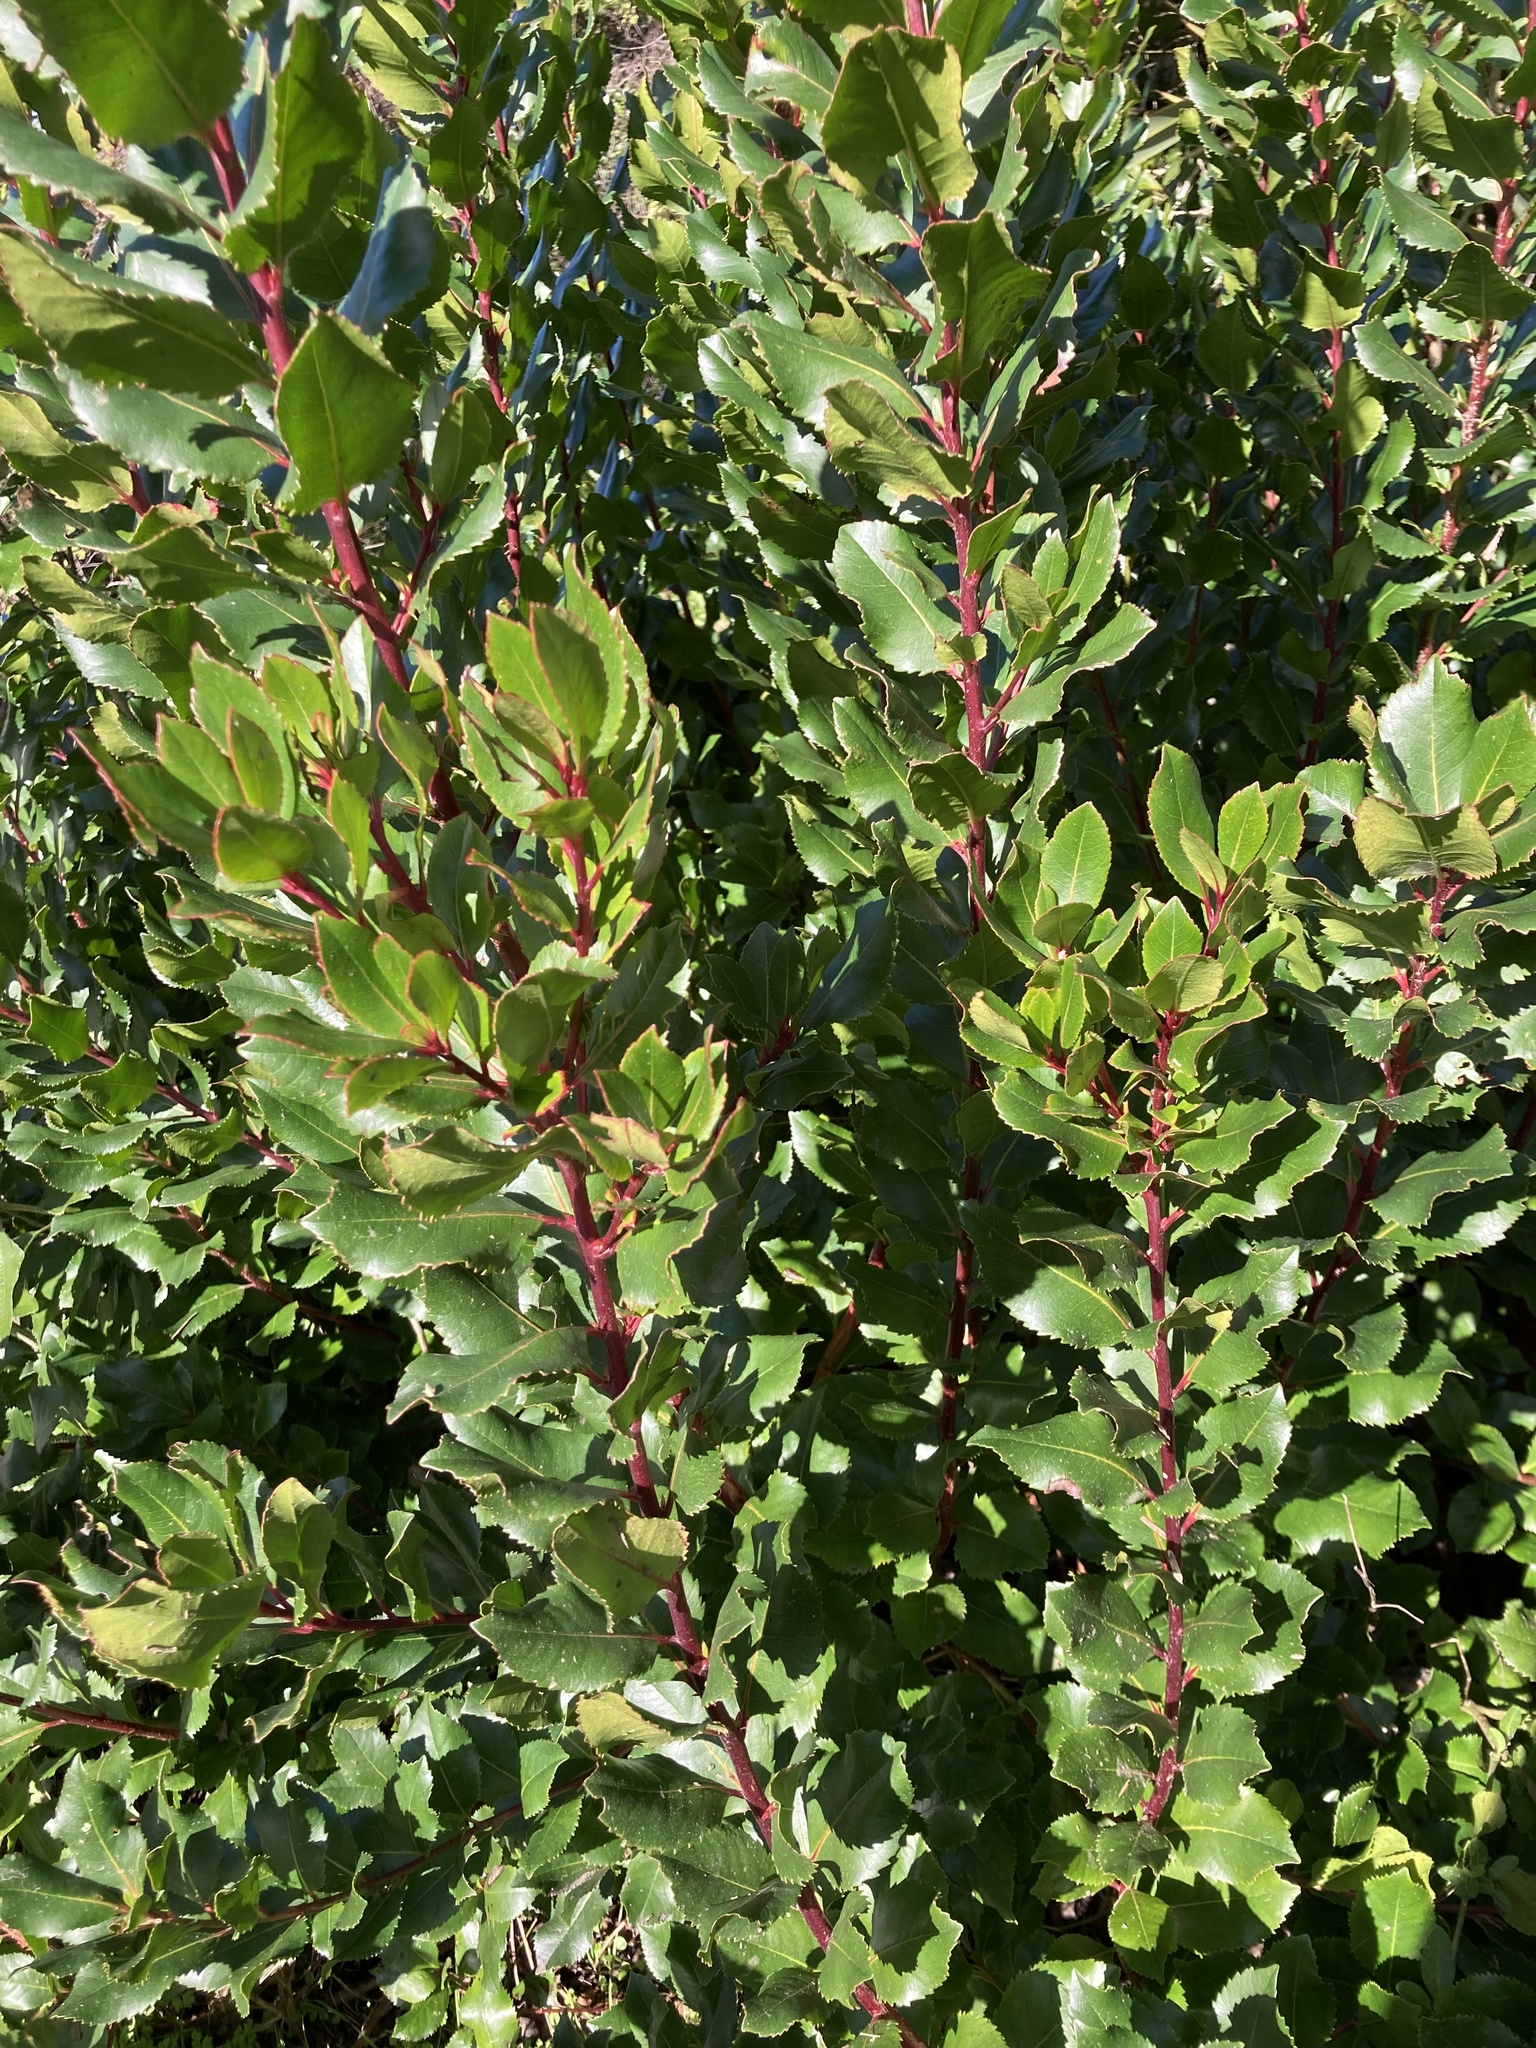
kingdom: Plantae
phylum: Tracheophyta
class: Magnoliopsida
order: Ericales
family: Ericaceae
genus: Arbutus
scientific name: Arbutus unedo
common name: Strawberry-tree
